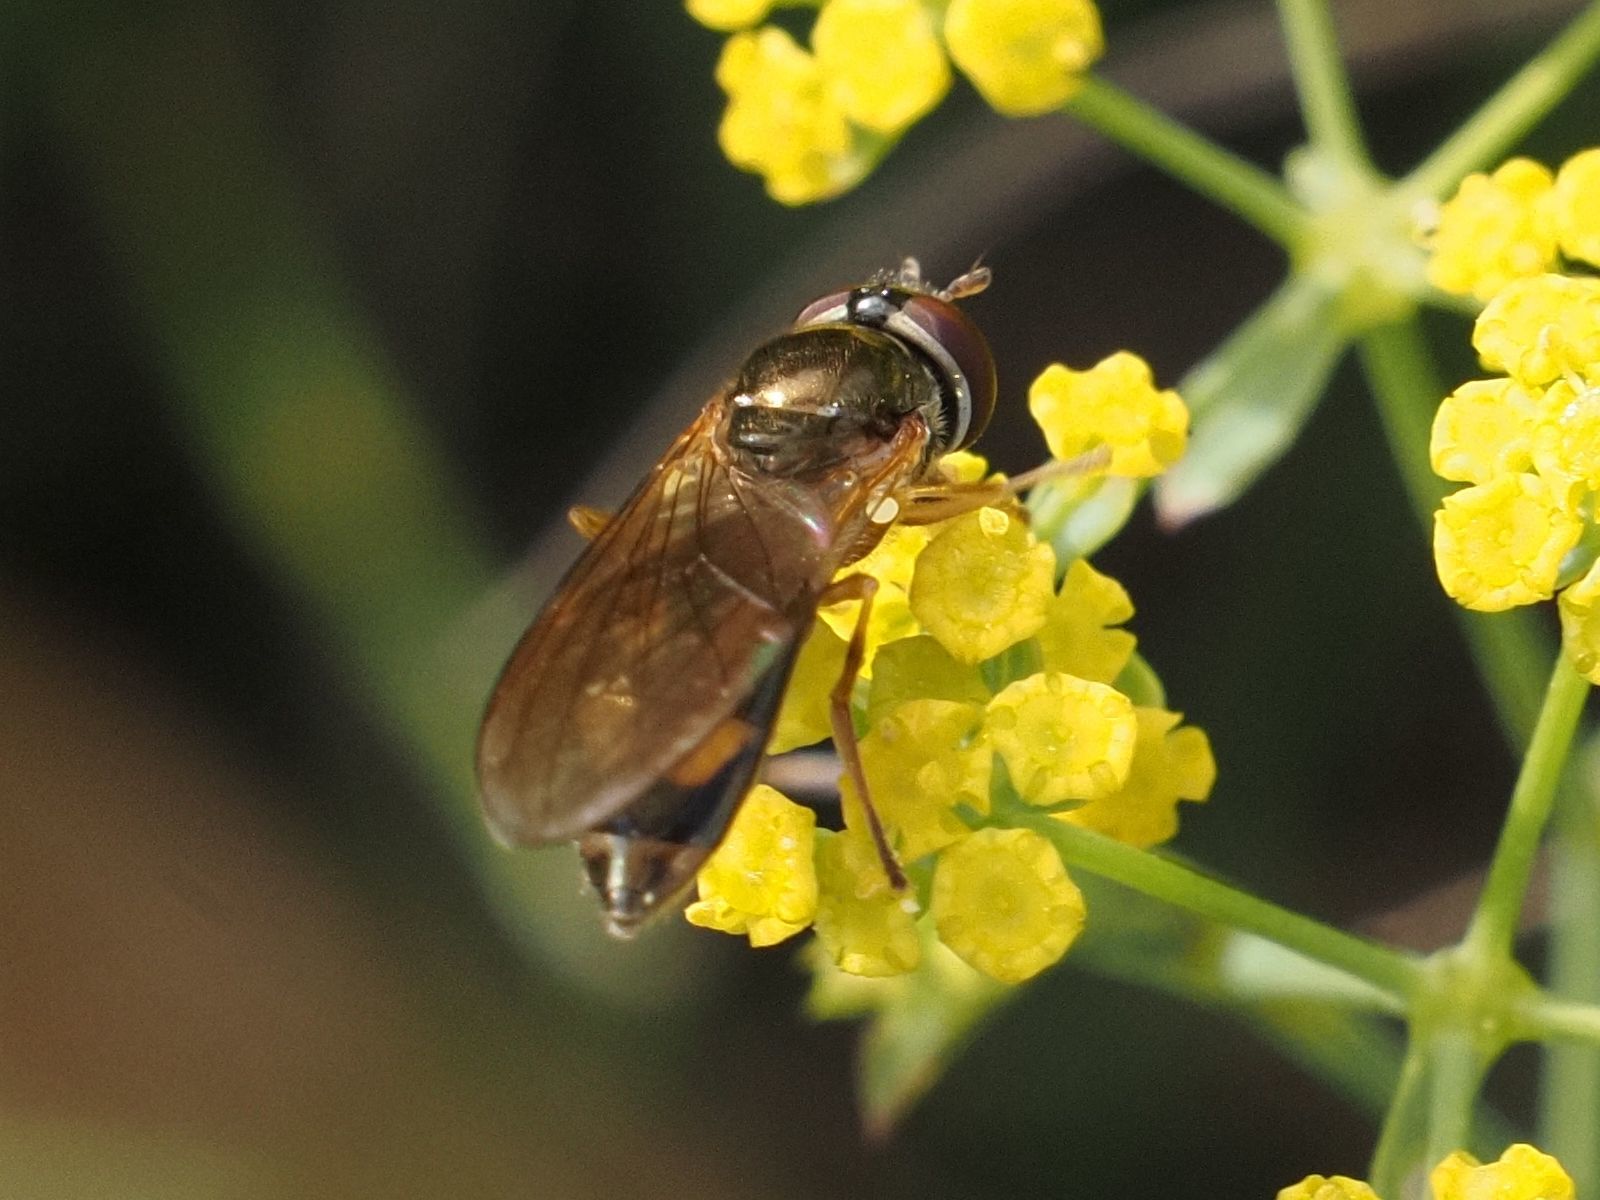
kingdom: Animalia
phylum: Arthropoda
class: Insecta
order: Diptera
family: Syrphidae
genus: Melanostoma
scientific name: Melanostoma mellina
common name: Hover fly
